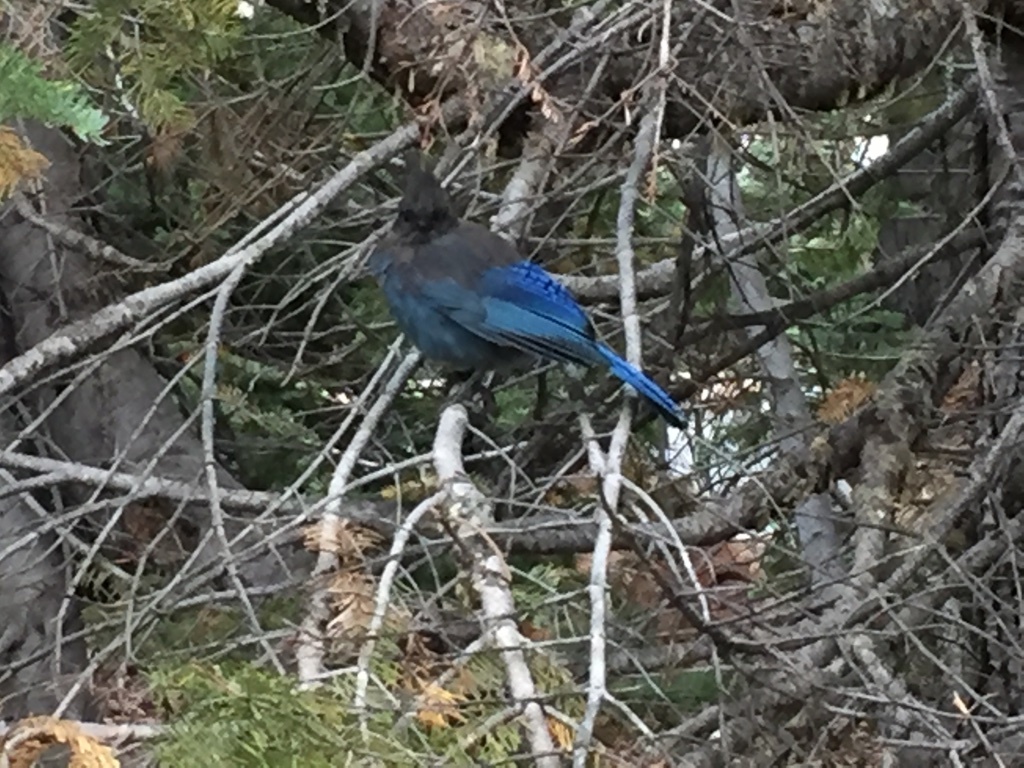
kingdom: Animalia
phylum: Chordata
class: Aves
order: Passeriformes
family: Corvidae
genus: Cyanocitta
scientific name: Cyanocitta stelleri
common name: Steller's jay
